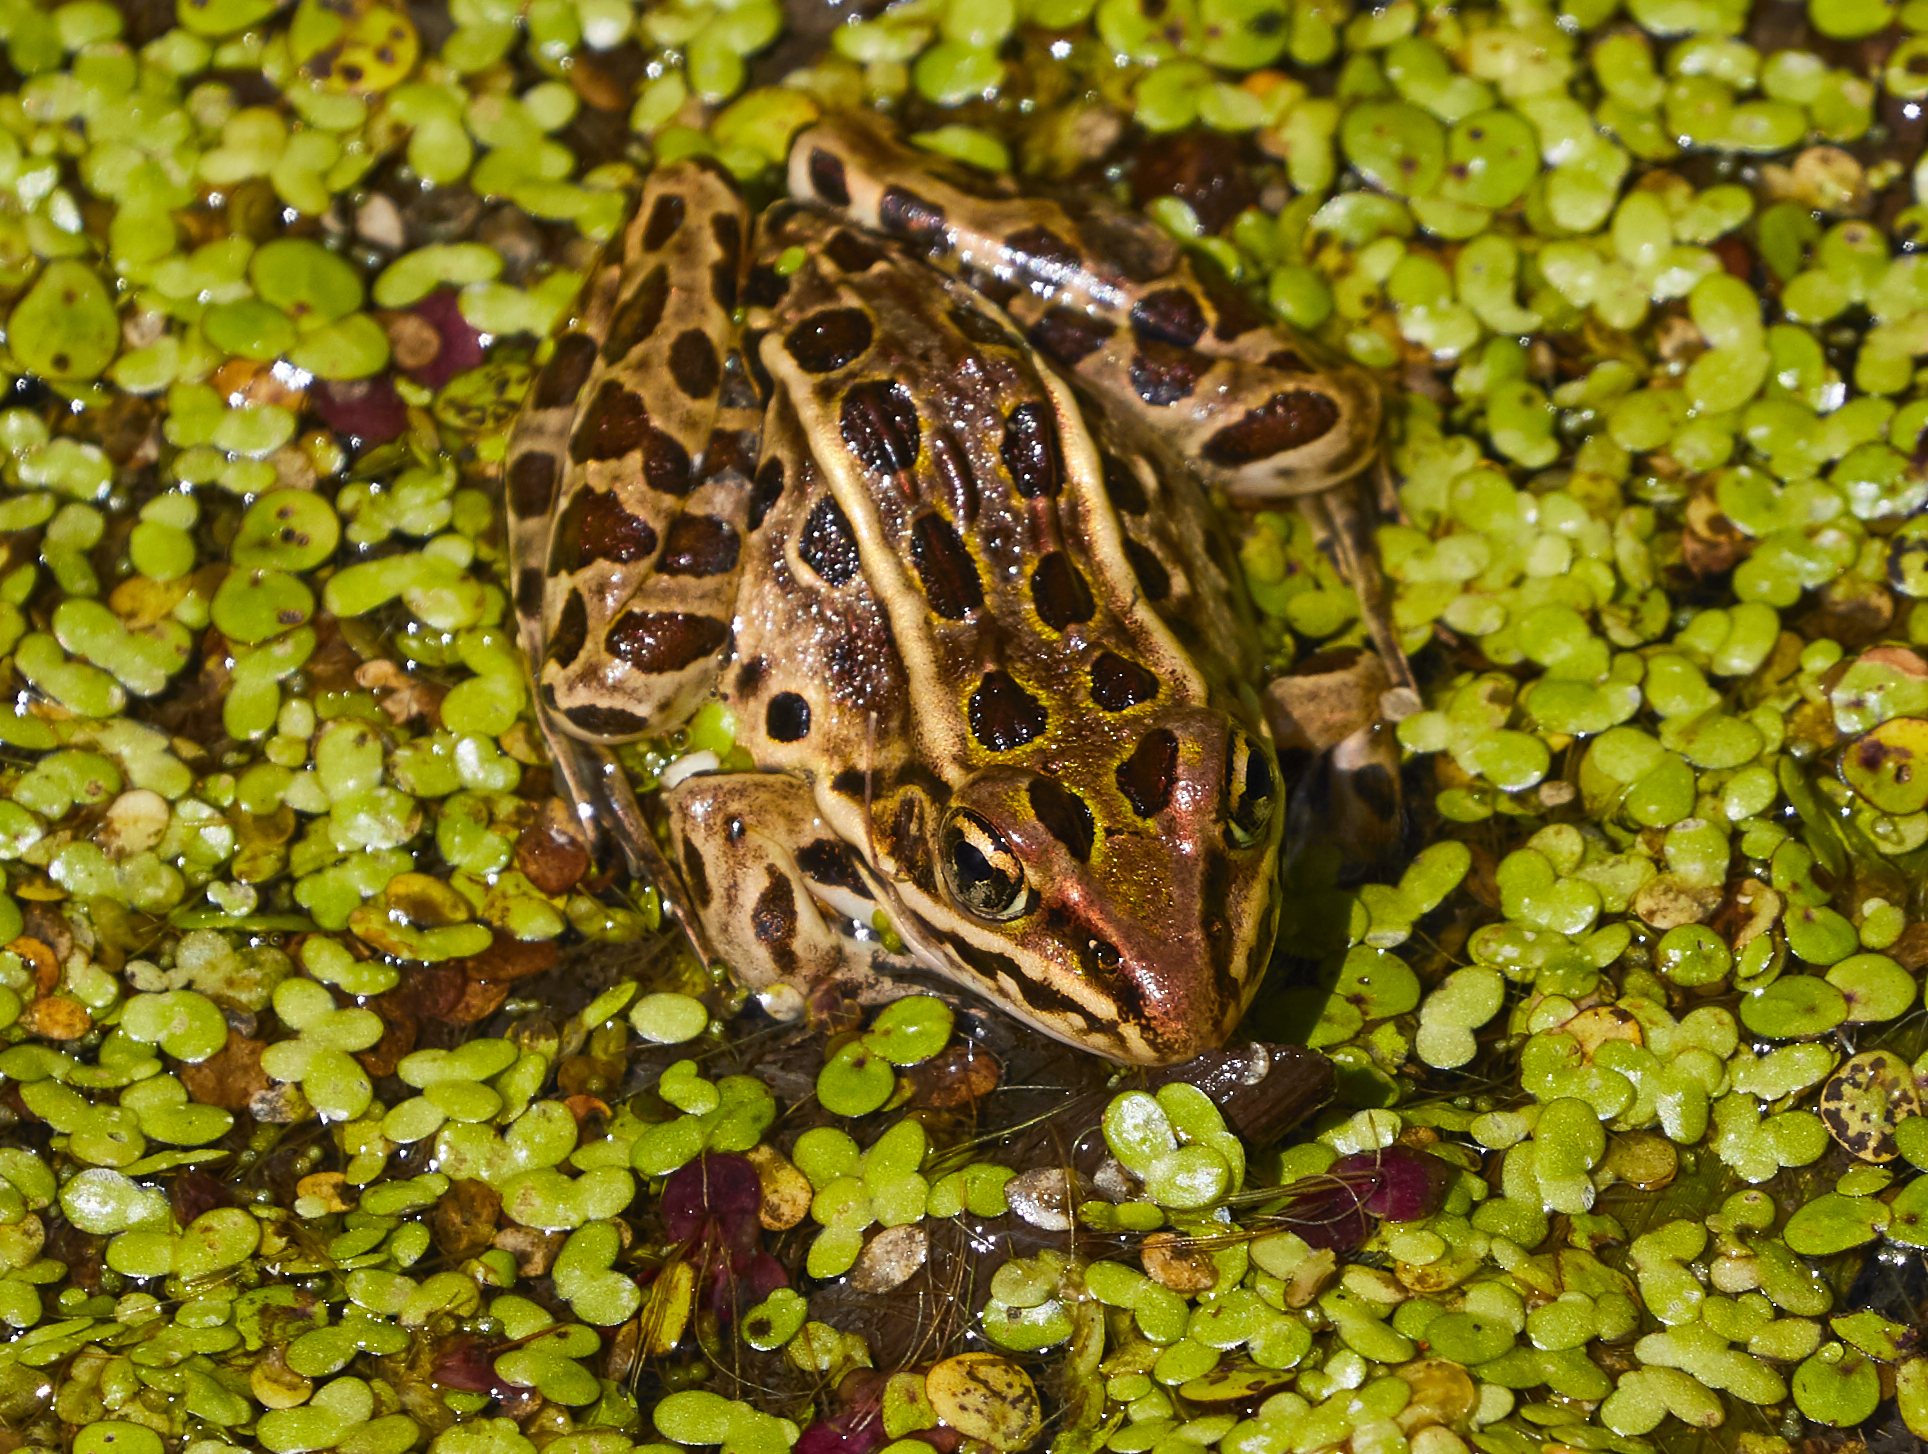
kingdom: Animalia
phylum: Chordata
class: Amphibia
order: Anura
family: Ranidae
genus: Lithobates
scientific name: Lithobates pipiens
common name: Northern leopard frog
